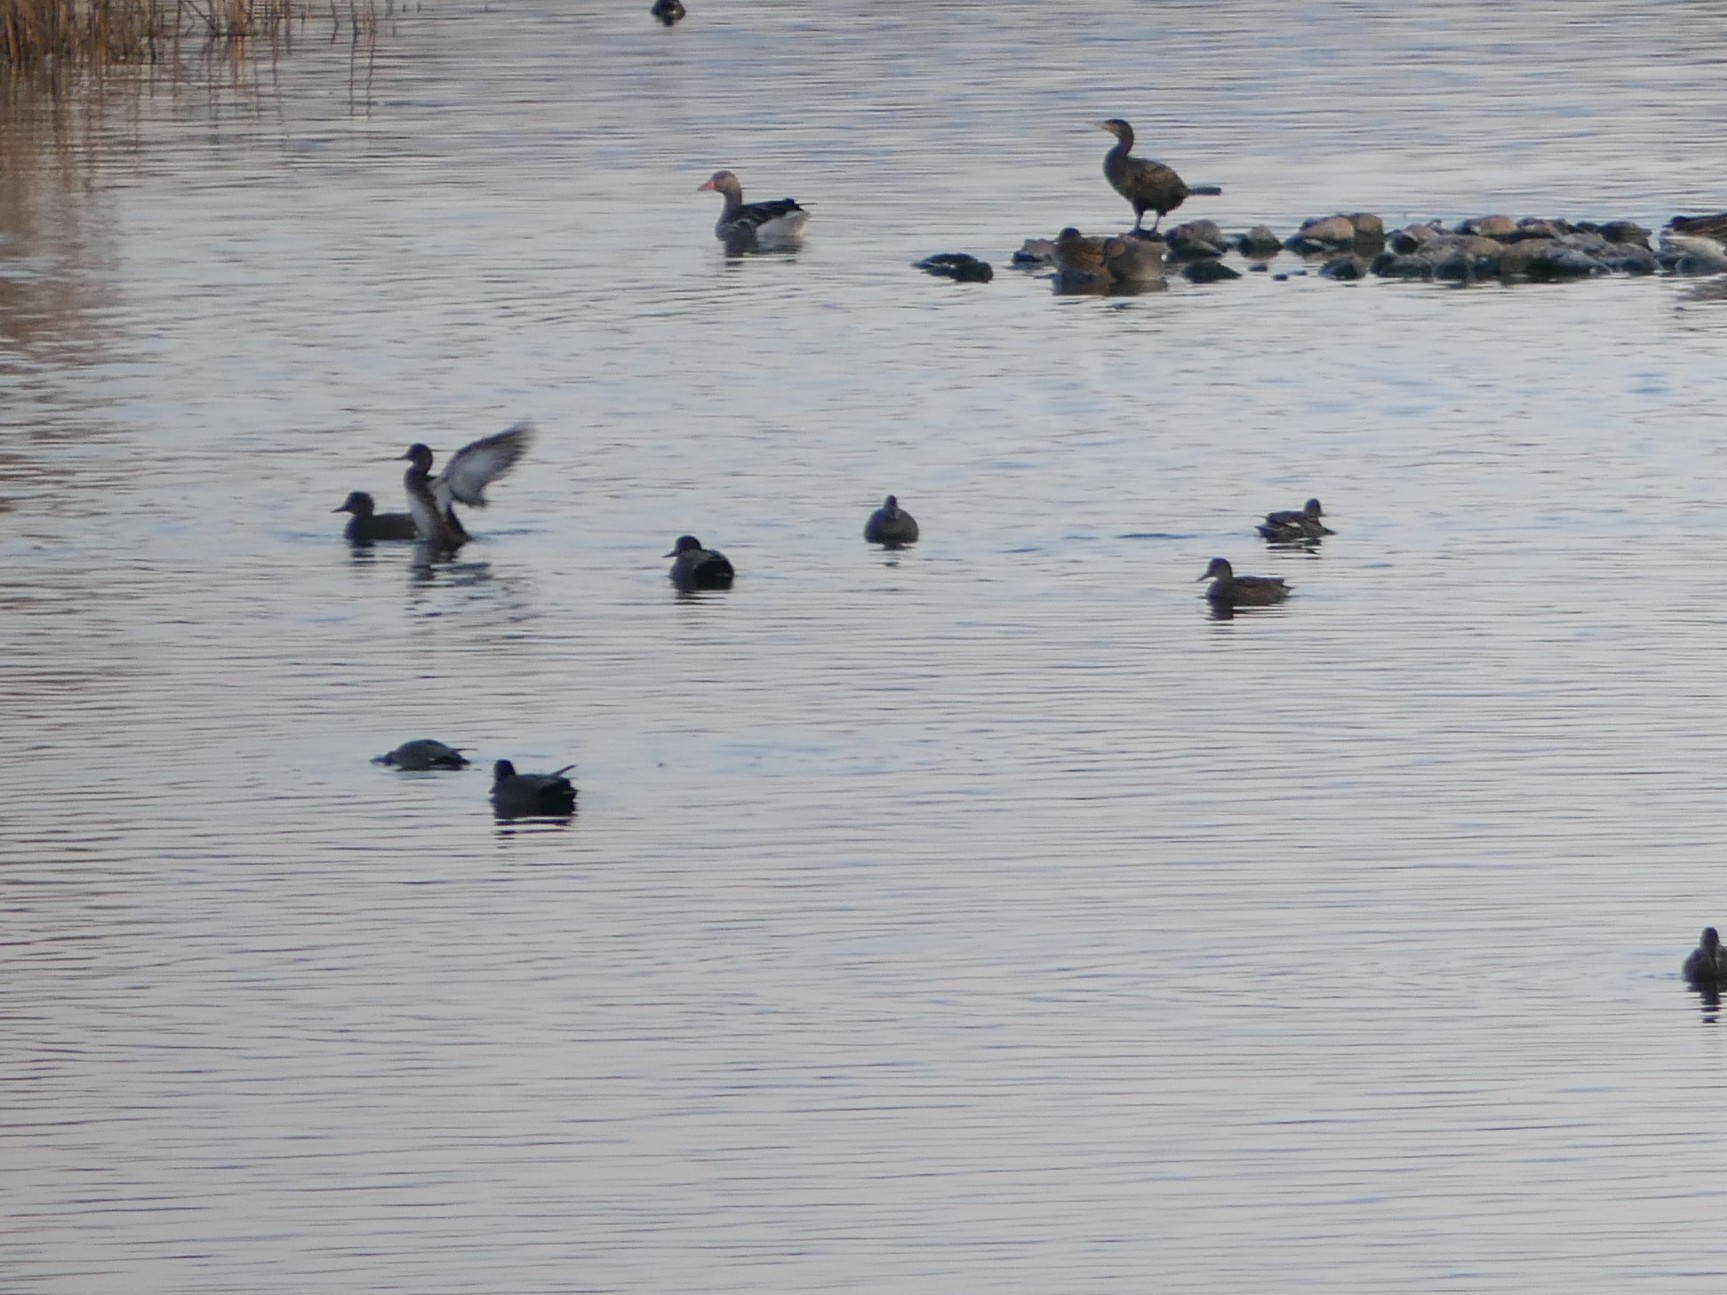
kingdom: Animalia
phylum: Chordata
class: Aves
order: Anseriformes
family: Anatidae
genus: Mareca
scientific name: Mareca strepera
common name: Gadwall
